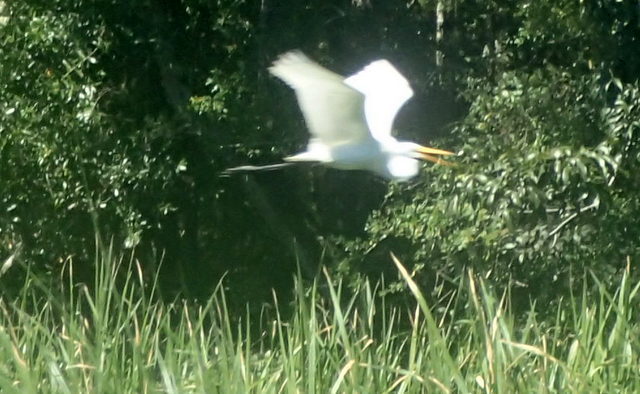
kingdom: Animalia
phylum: Chordata
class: Aves
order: Pelecaniformes
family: Ardeidae
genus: Ardea
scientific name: Ardea alba
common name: Great egret
